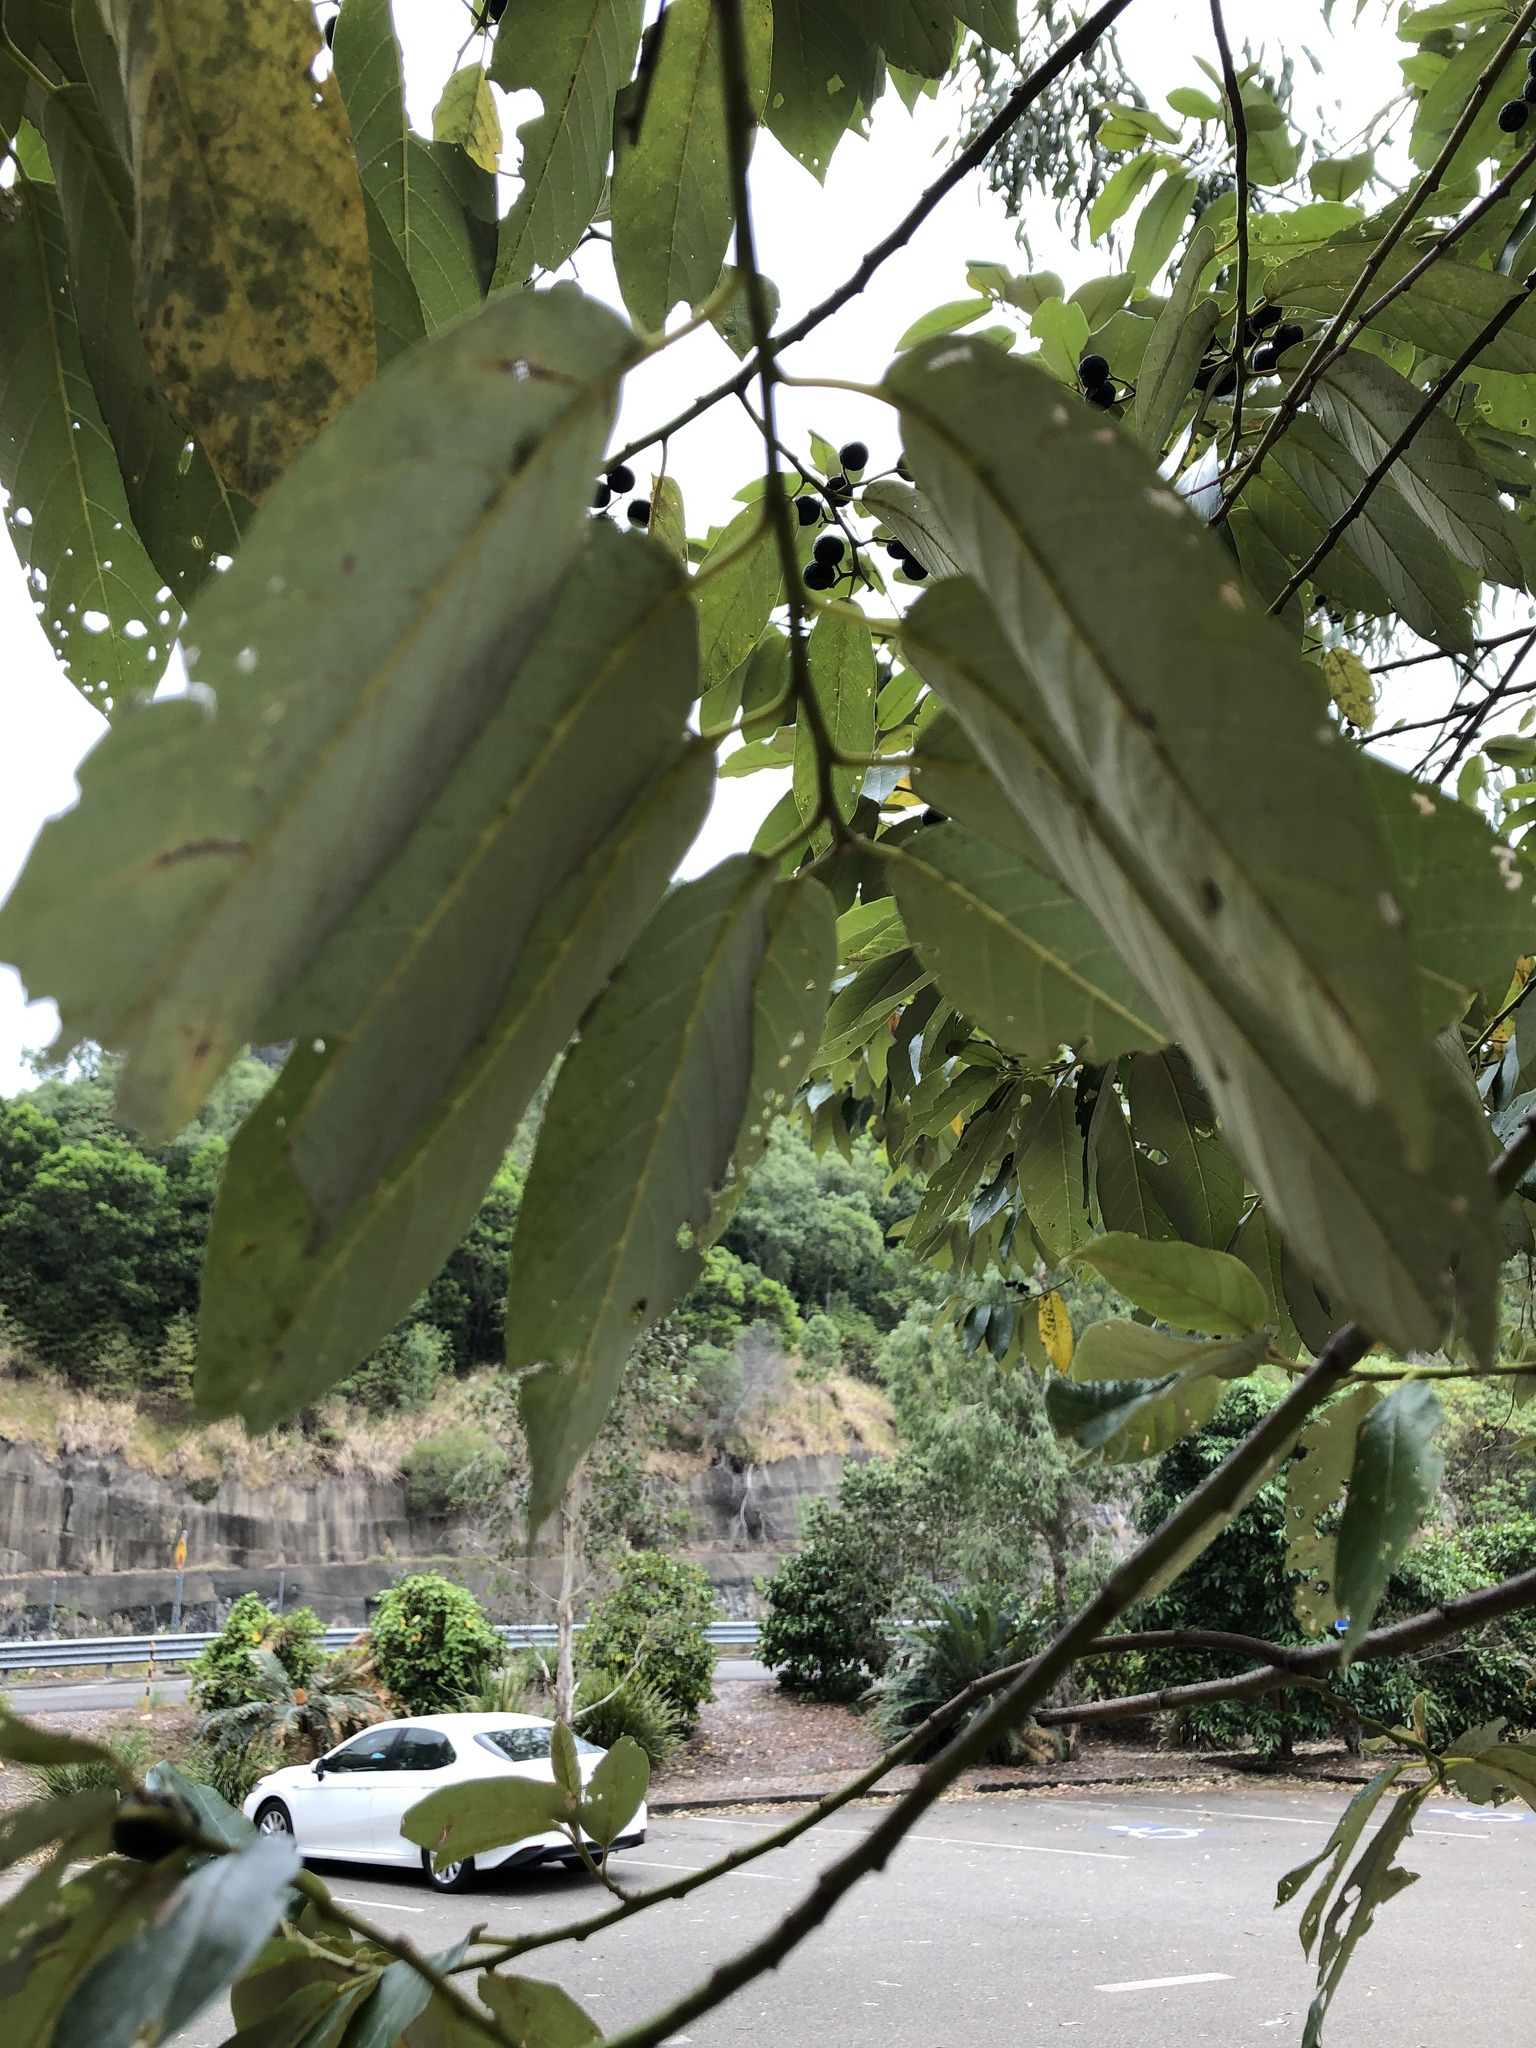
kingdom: Plantae
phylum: Tracheophyta
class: Magnoliopsida
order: Rosales
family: Rhamnaceae
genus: Alphitonia
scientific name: Alphitonia oblata
